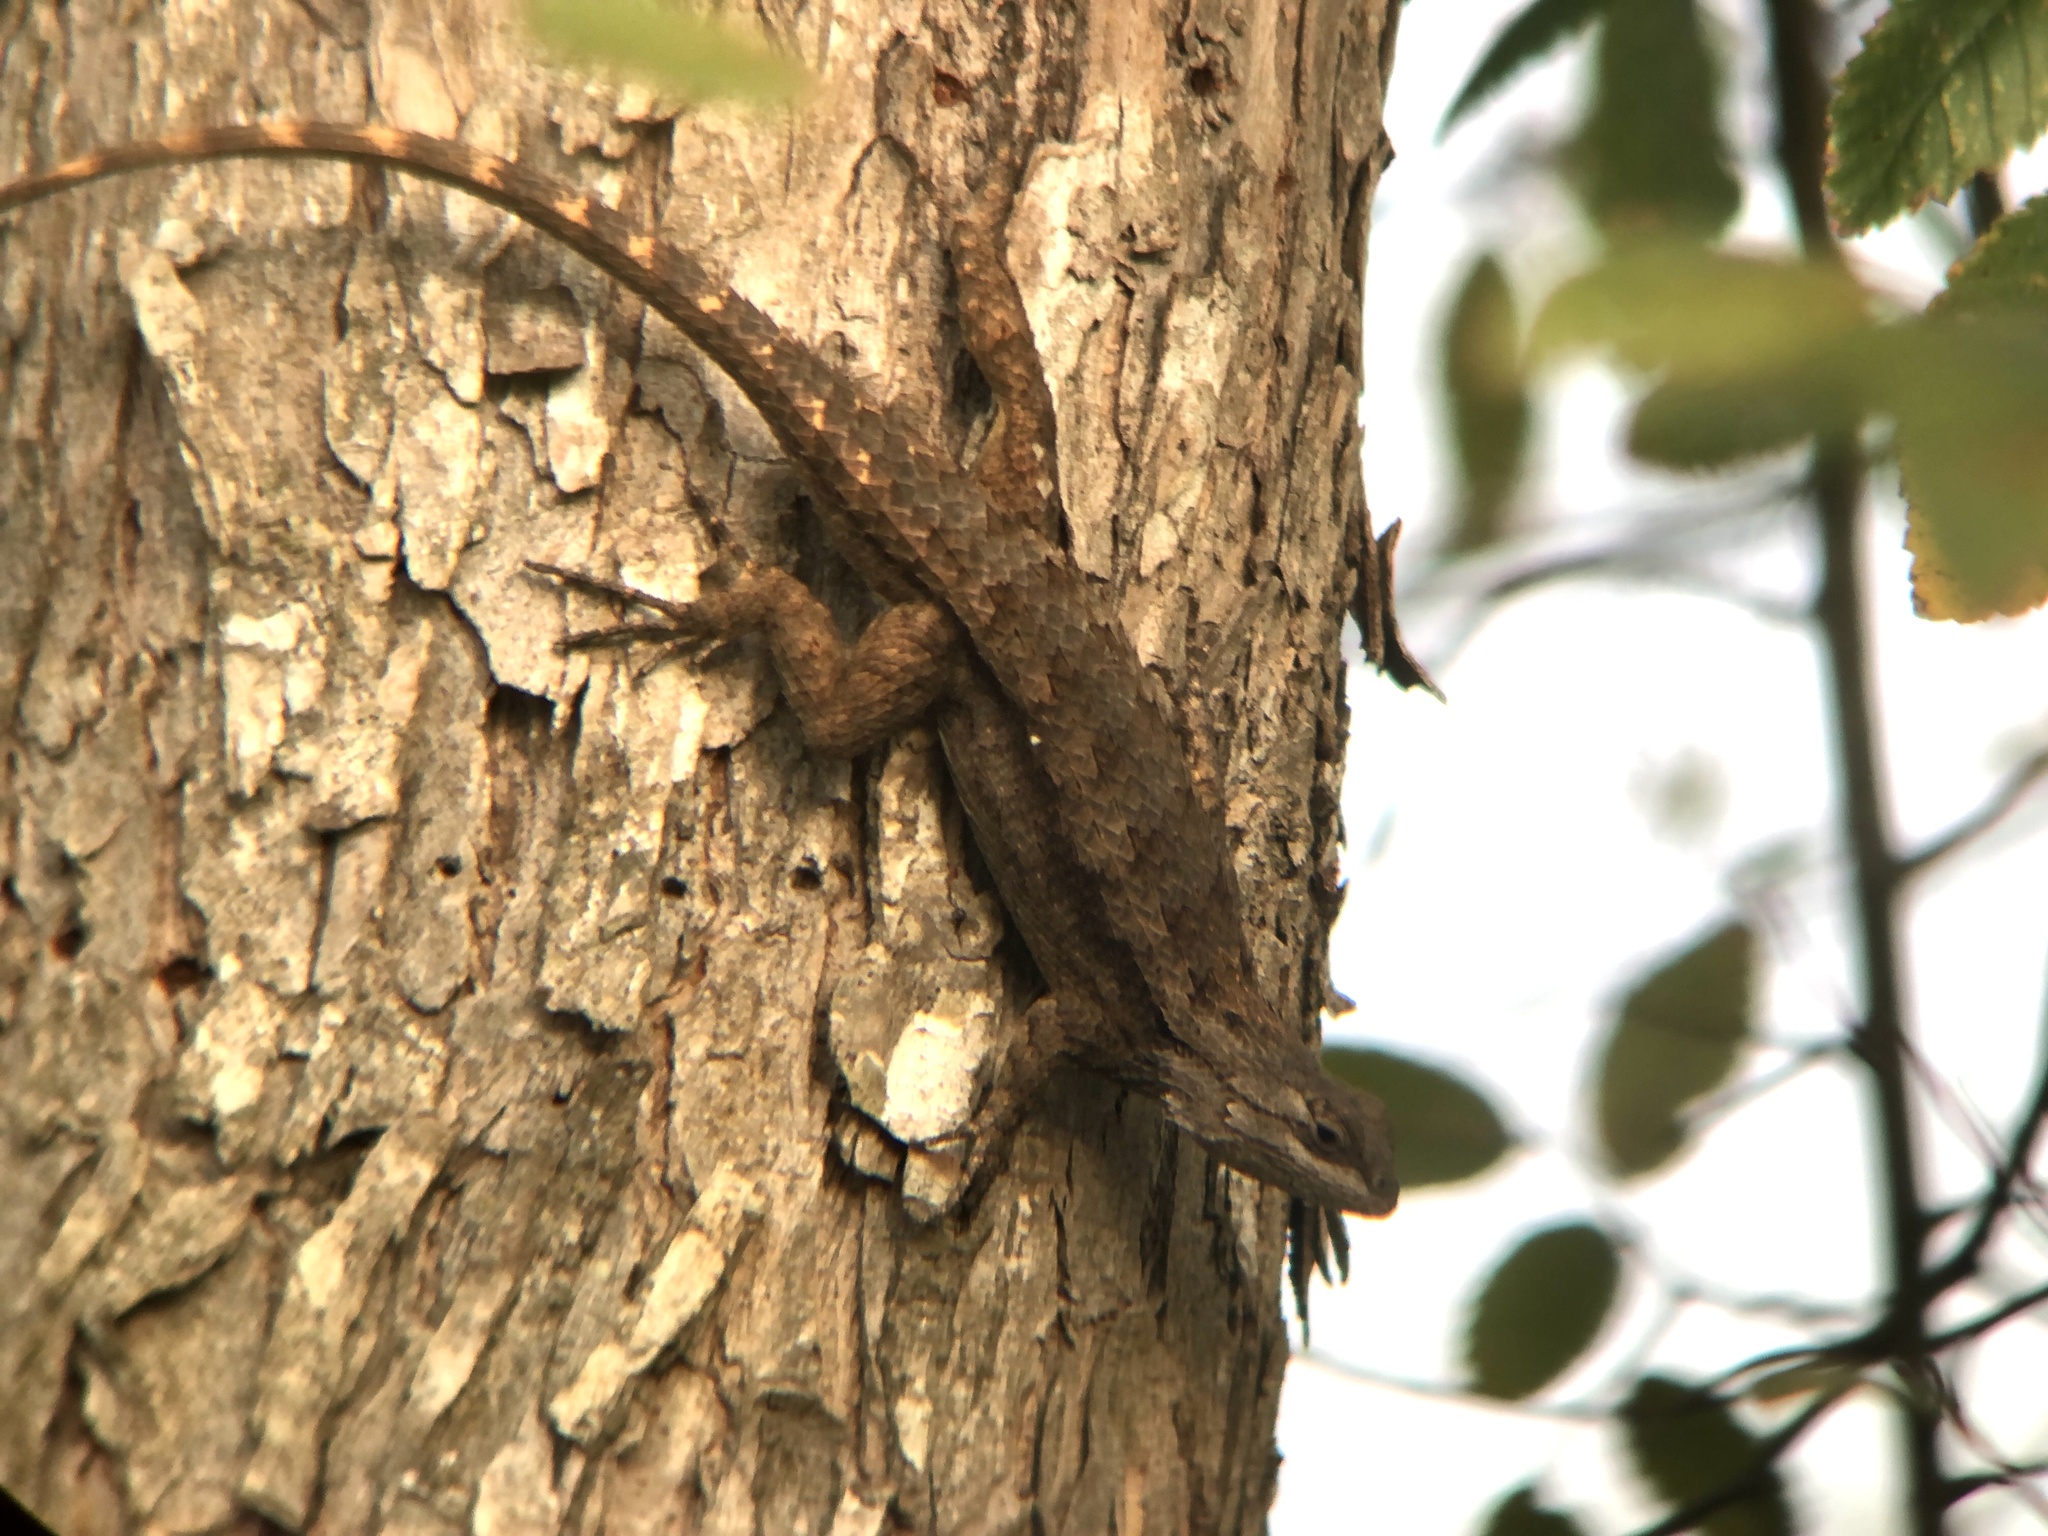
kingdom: Animalia
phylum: Chordata
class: Squamata
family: Phrynosomatidae
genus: Sceloporus
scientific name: Sceloporus olivaceus
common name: Texas spiny lizard
